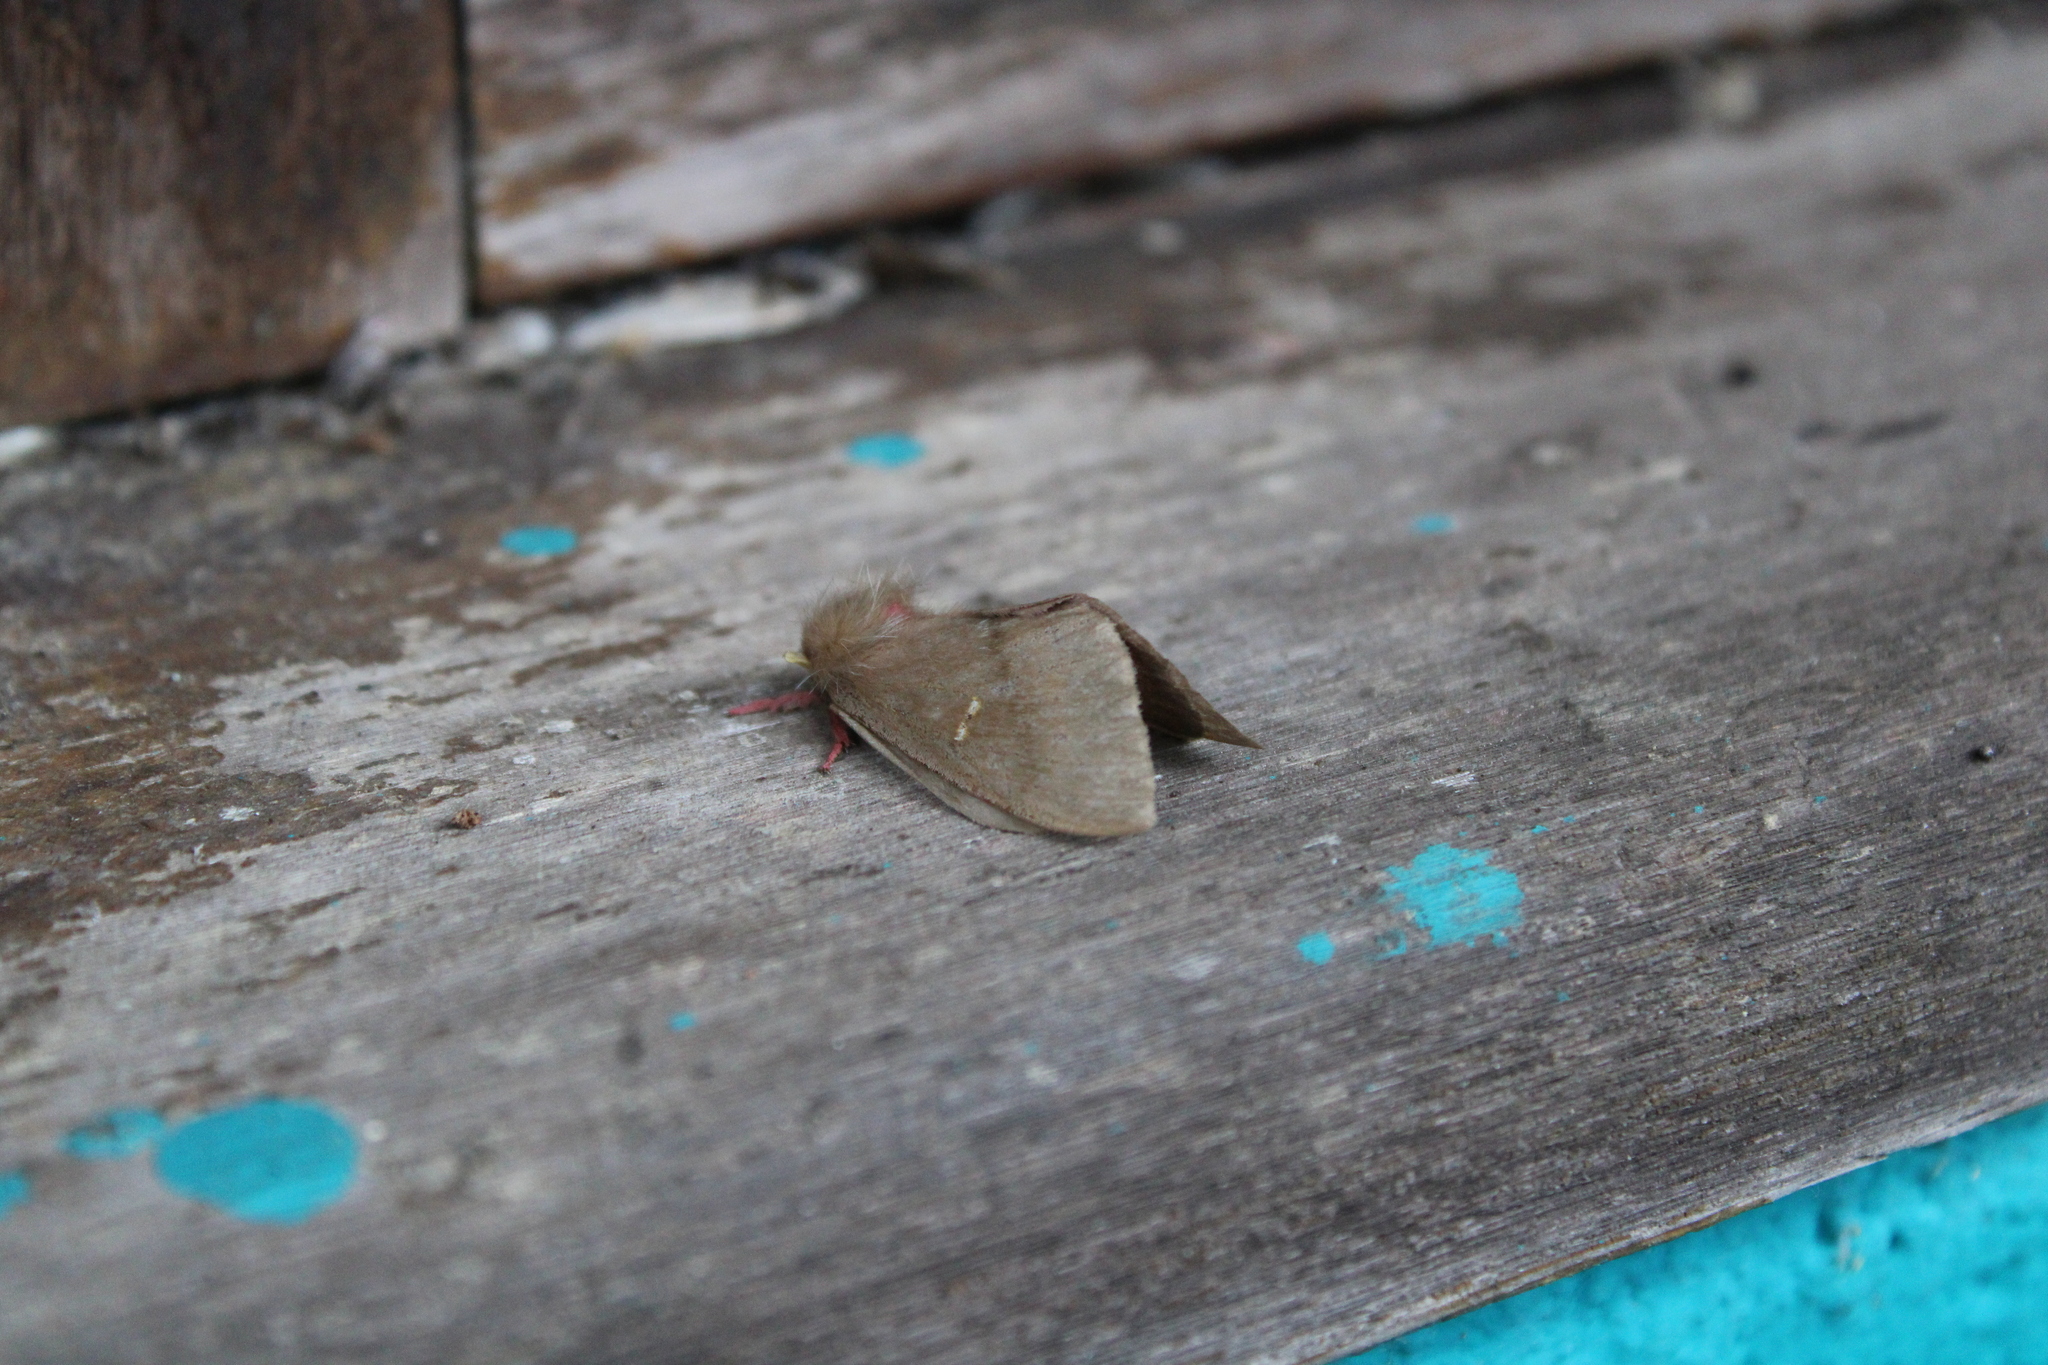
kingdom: Animalia
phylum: Arthropoda
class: Insecta
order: Lepidoptera
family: Saturniidae
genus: Cerodirphia
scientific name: Cerodirphia vagans
